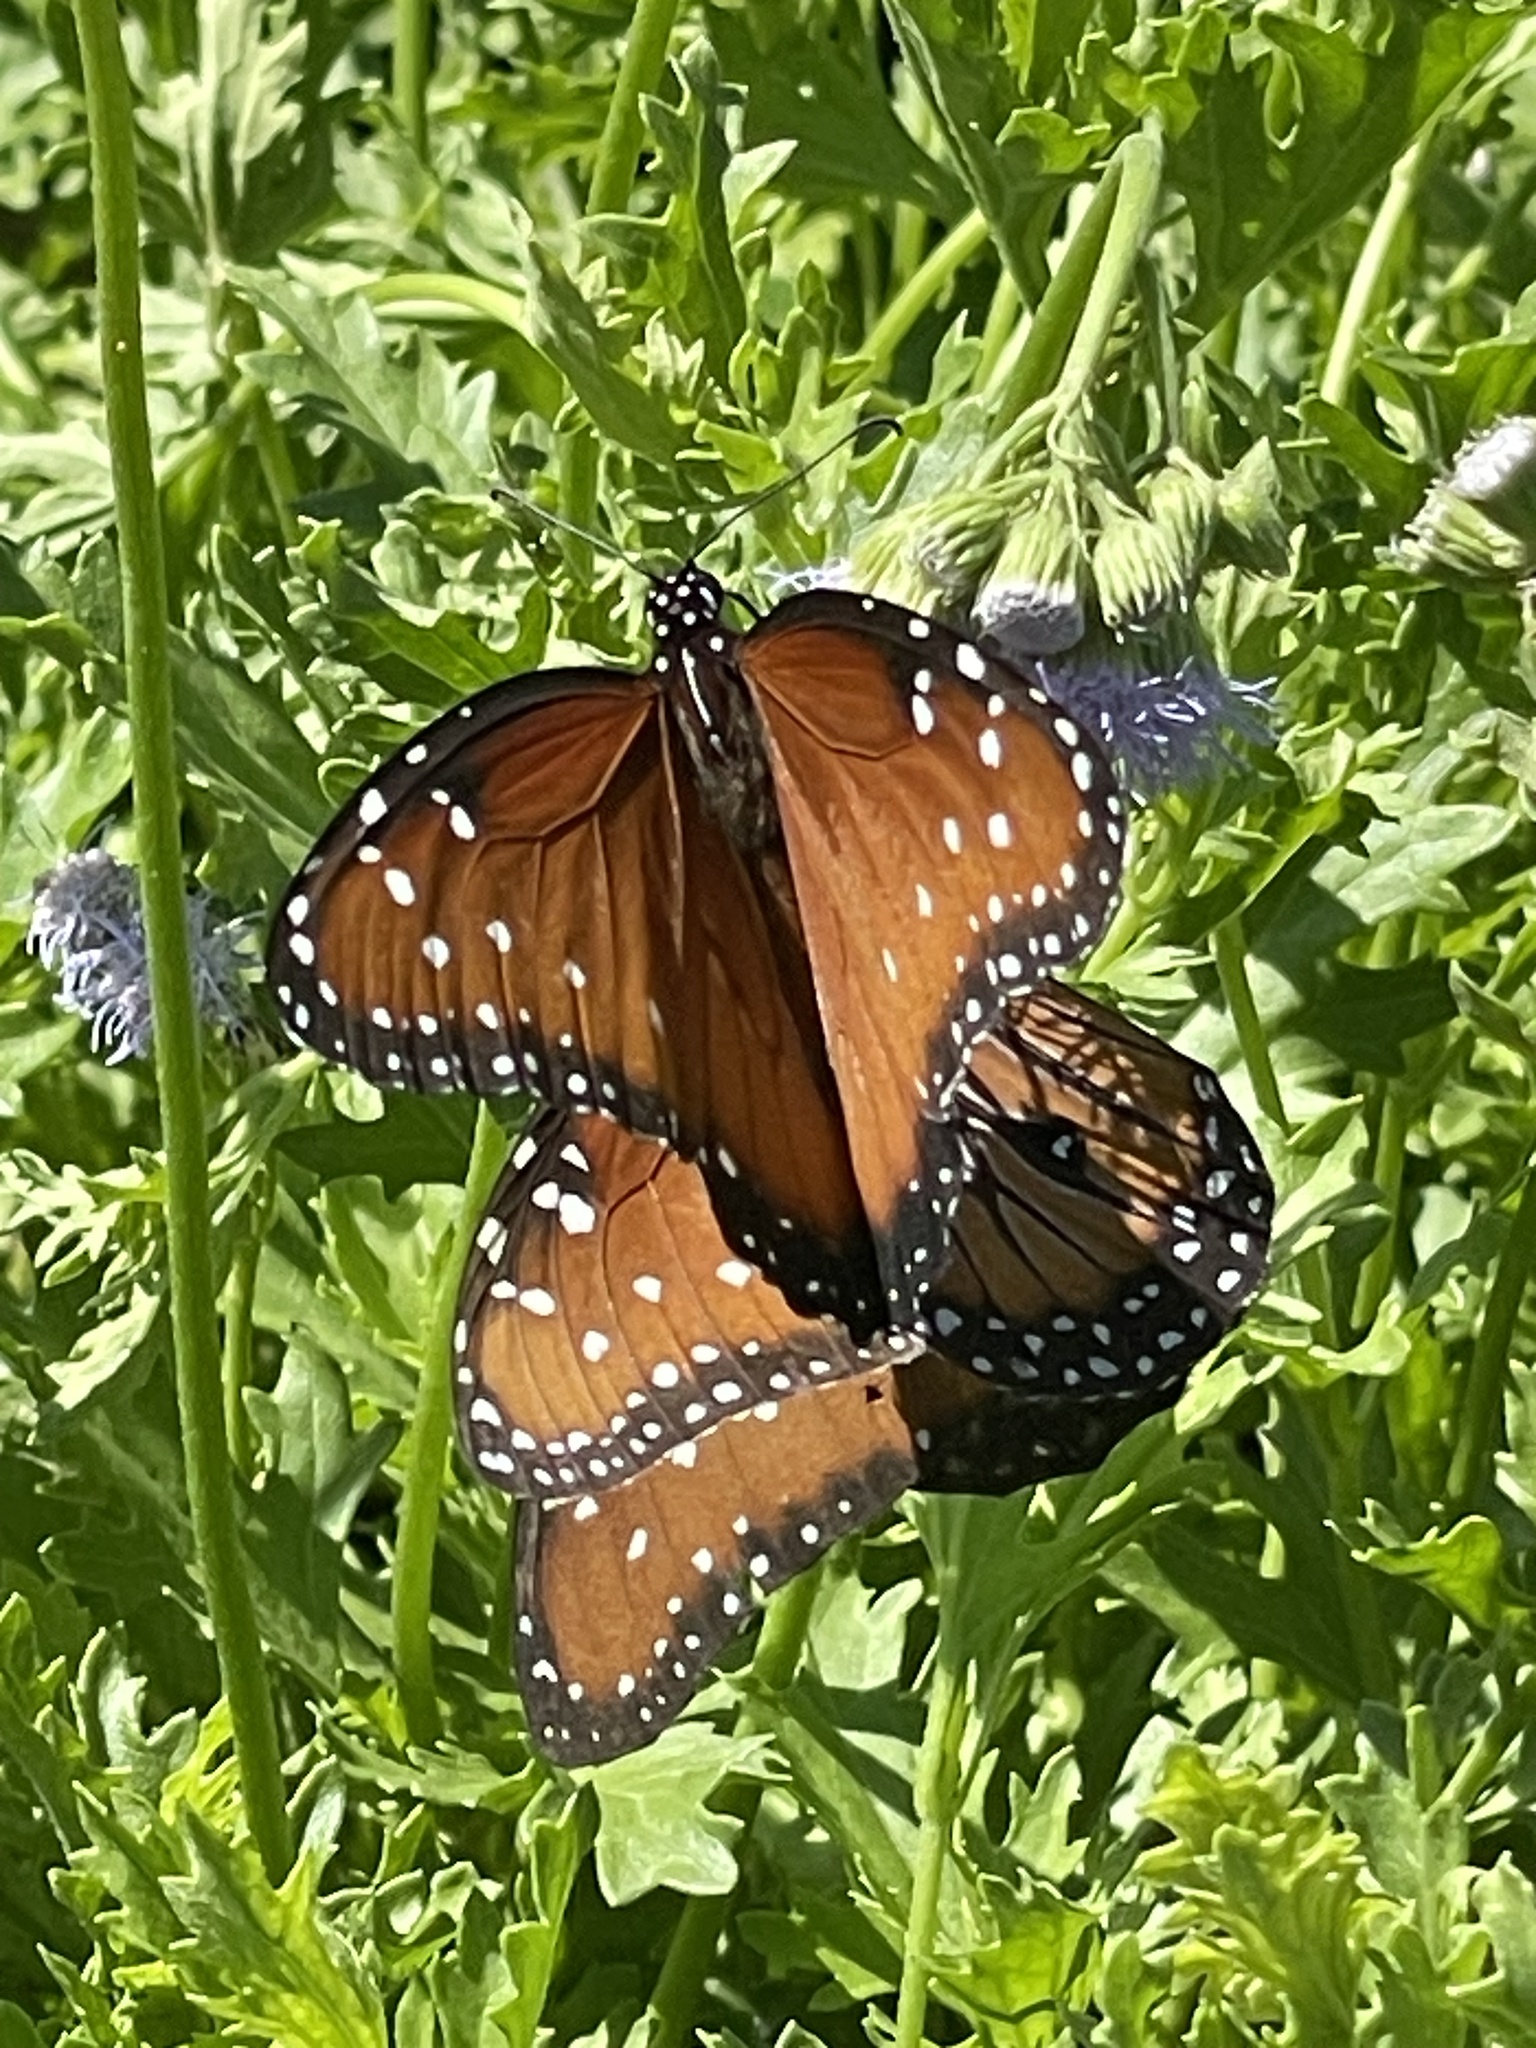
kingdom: Animalia
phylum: Arthropoda
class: Insecta
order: Lepidoptera
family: Nymphalidae
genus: Danaus
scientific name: Danaus gilippus
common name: Queen
